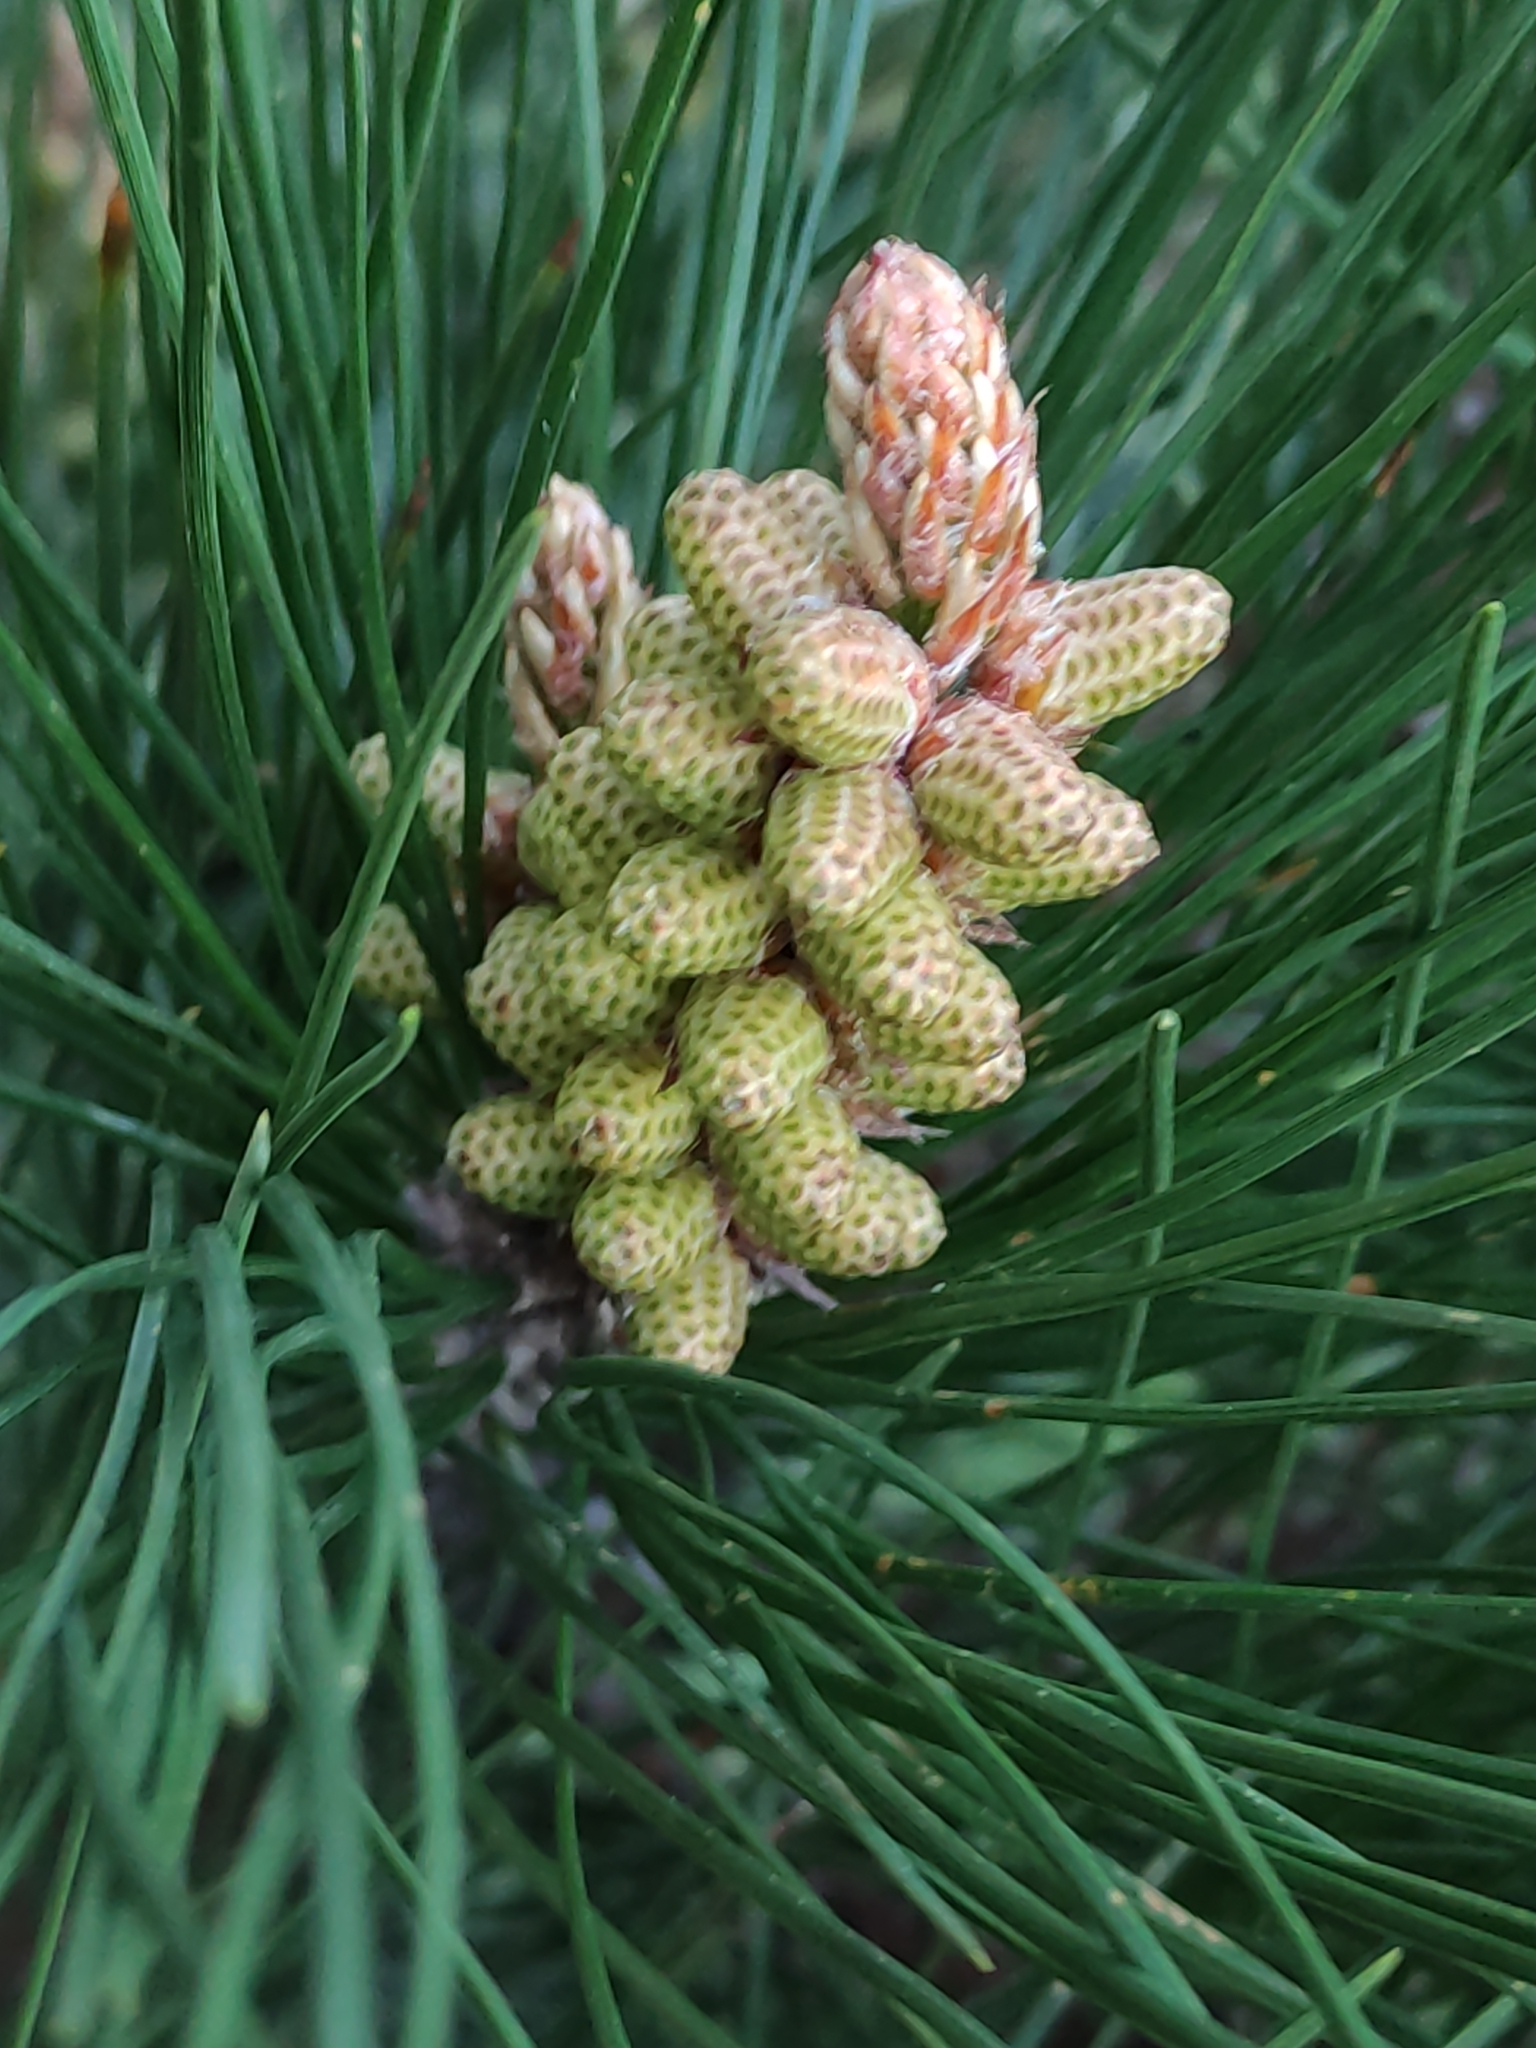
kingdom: Plantae
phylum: Tracheophyta
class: Pinopsida
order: Pinales
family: Pinaceae
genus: Pinus
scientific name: Pinus radiata
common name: Monterey pine
